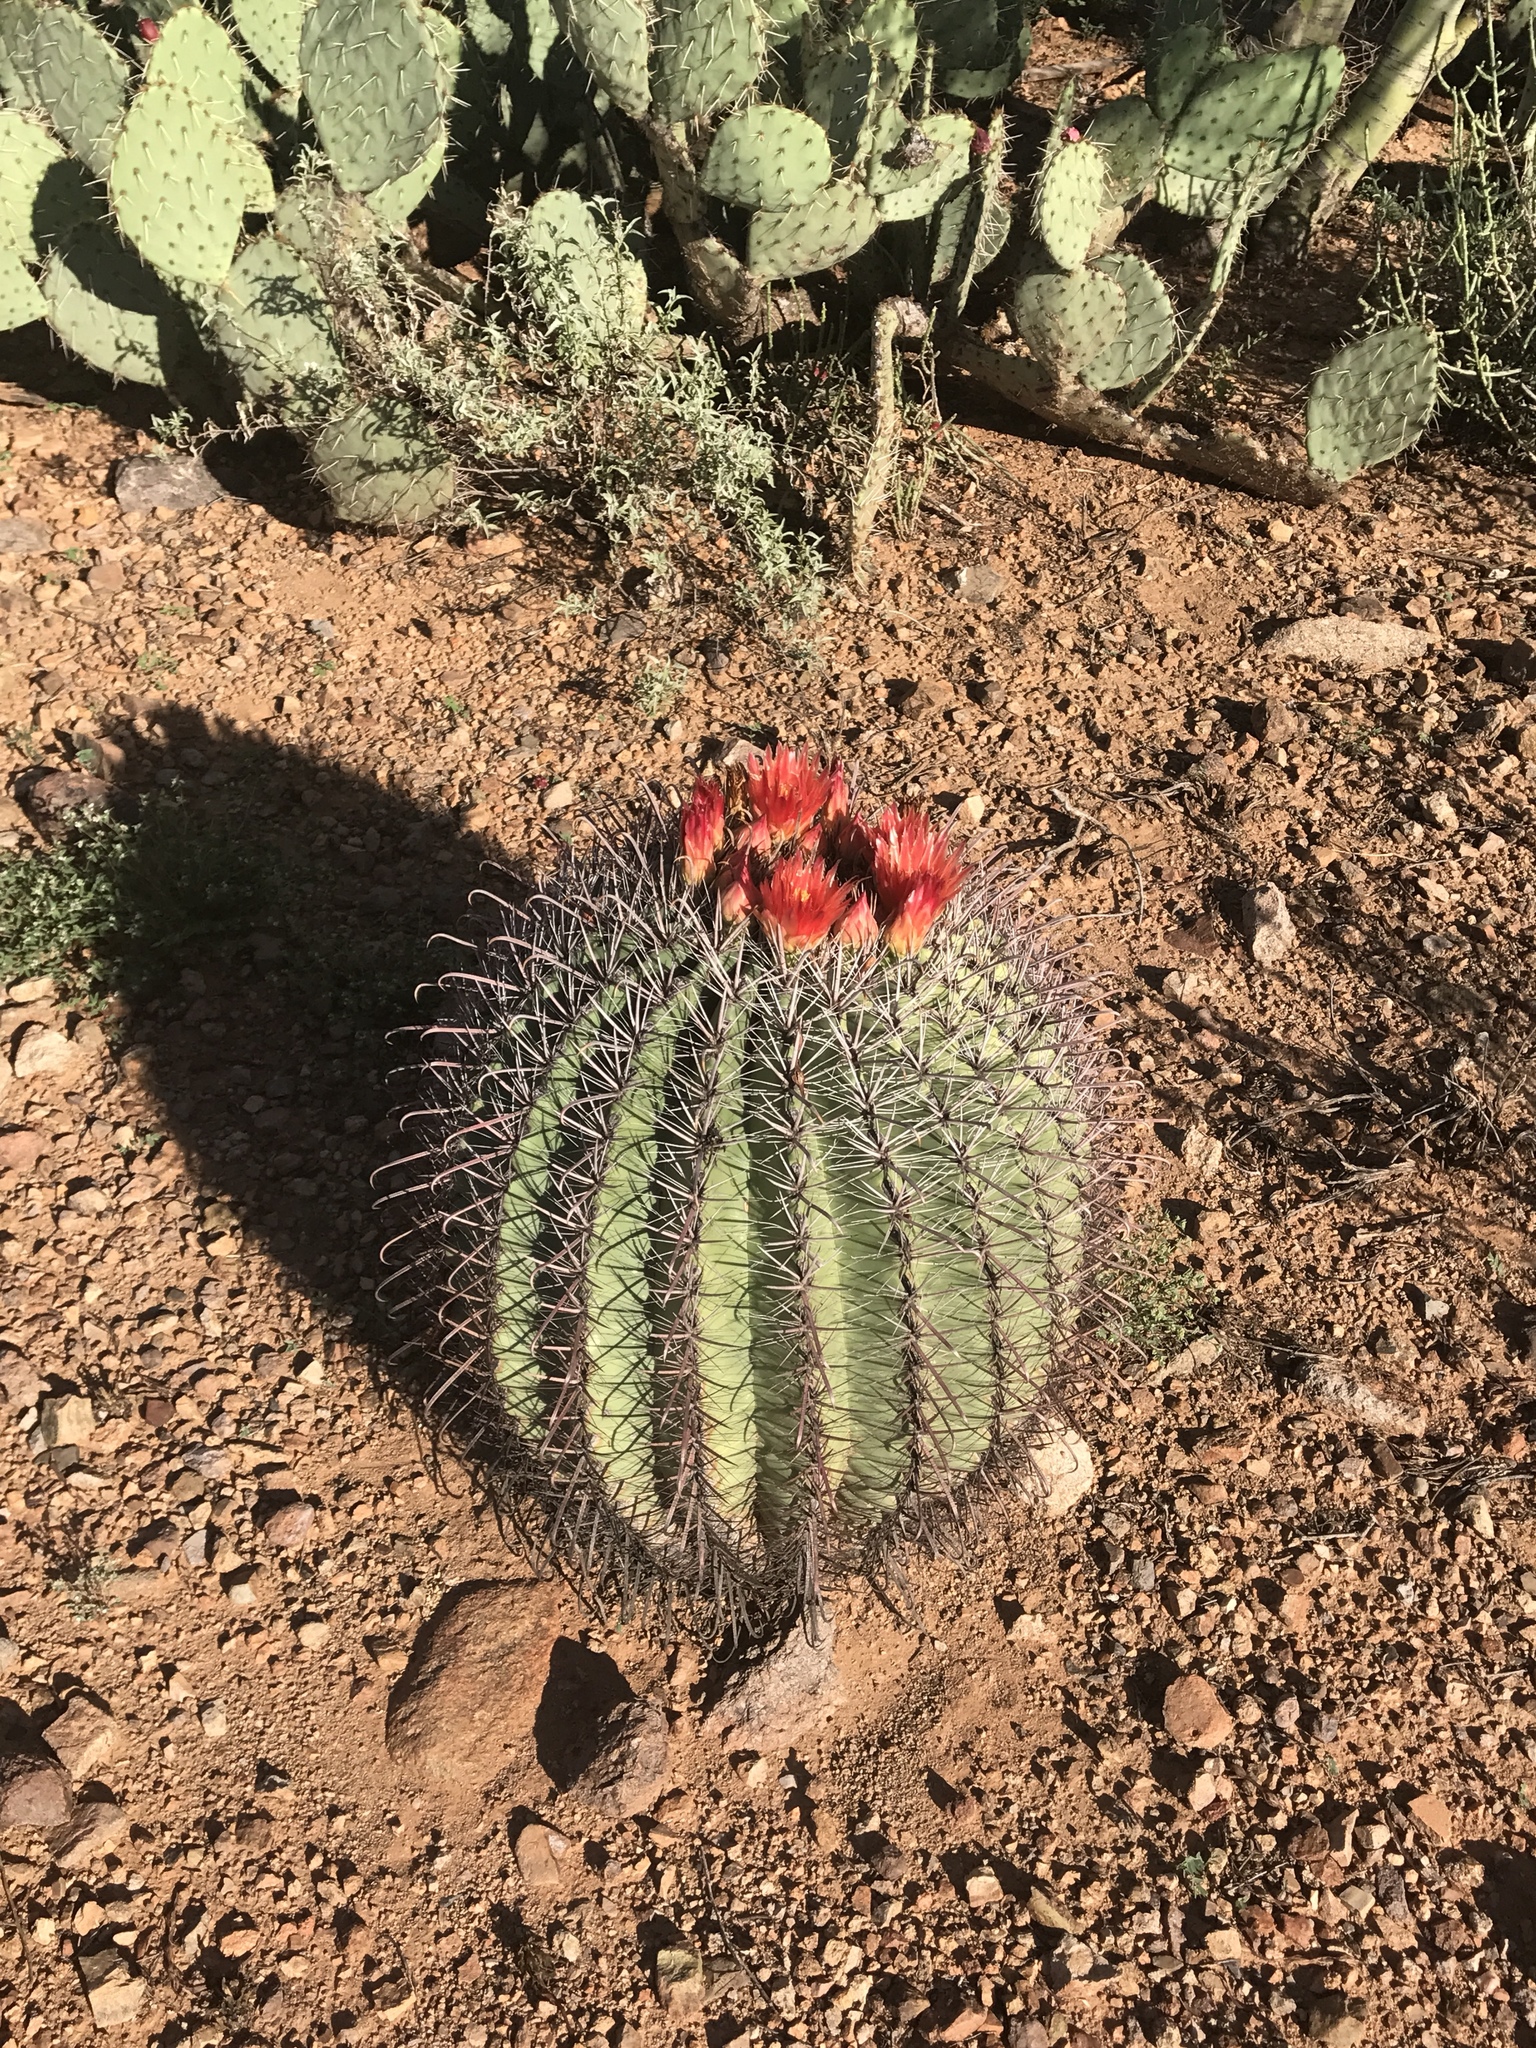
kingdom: Plantae
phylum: Tracheophyta
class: Magnoliopsida
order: Caryophyllales
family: Cactaceae
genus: Ferocactus
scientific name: Ferocactus wislizeni
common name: Candy barrel cactus
